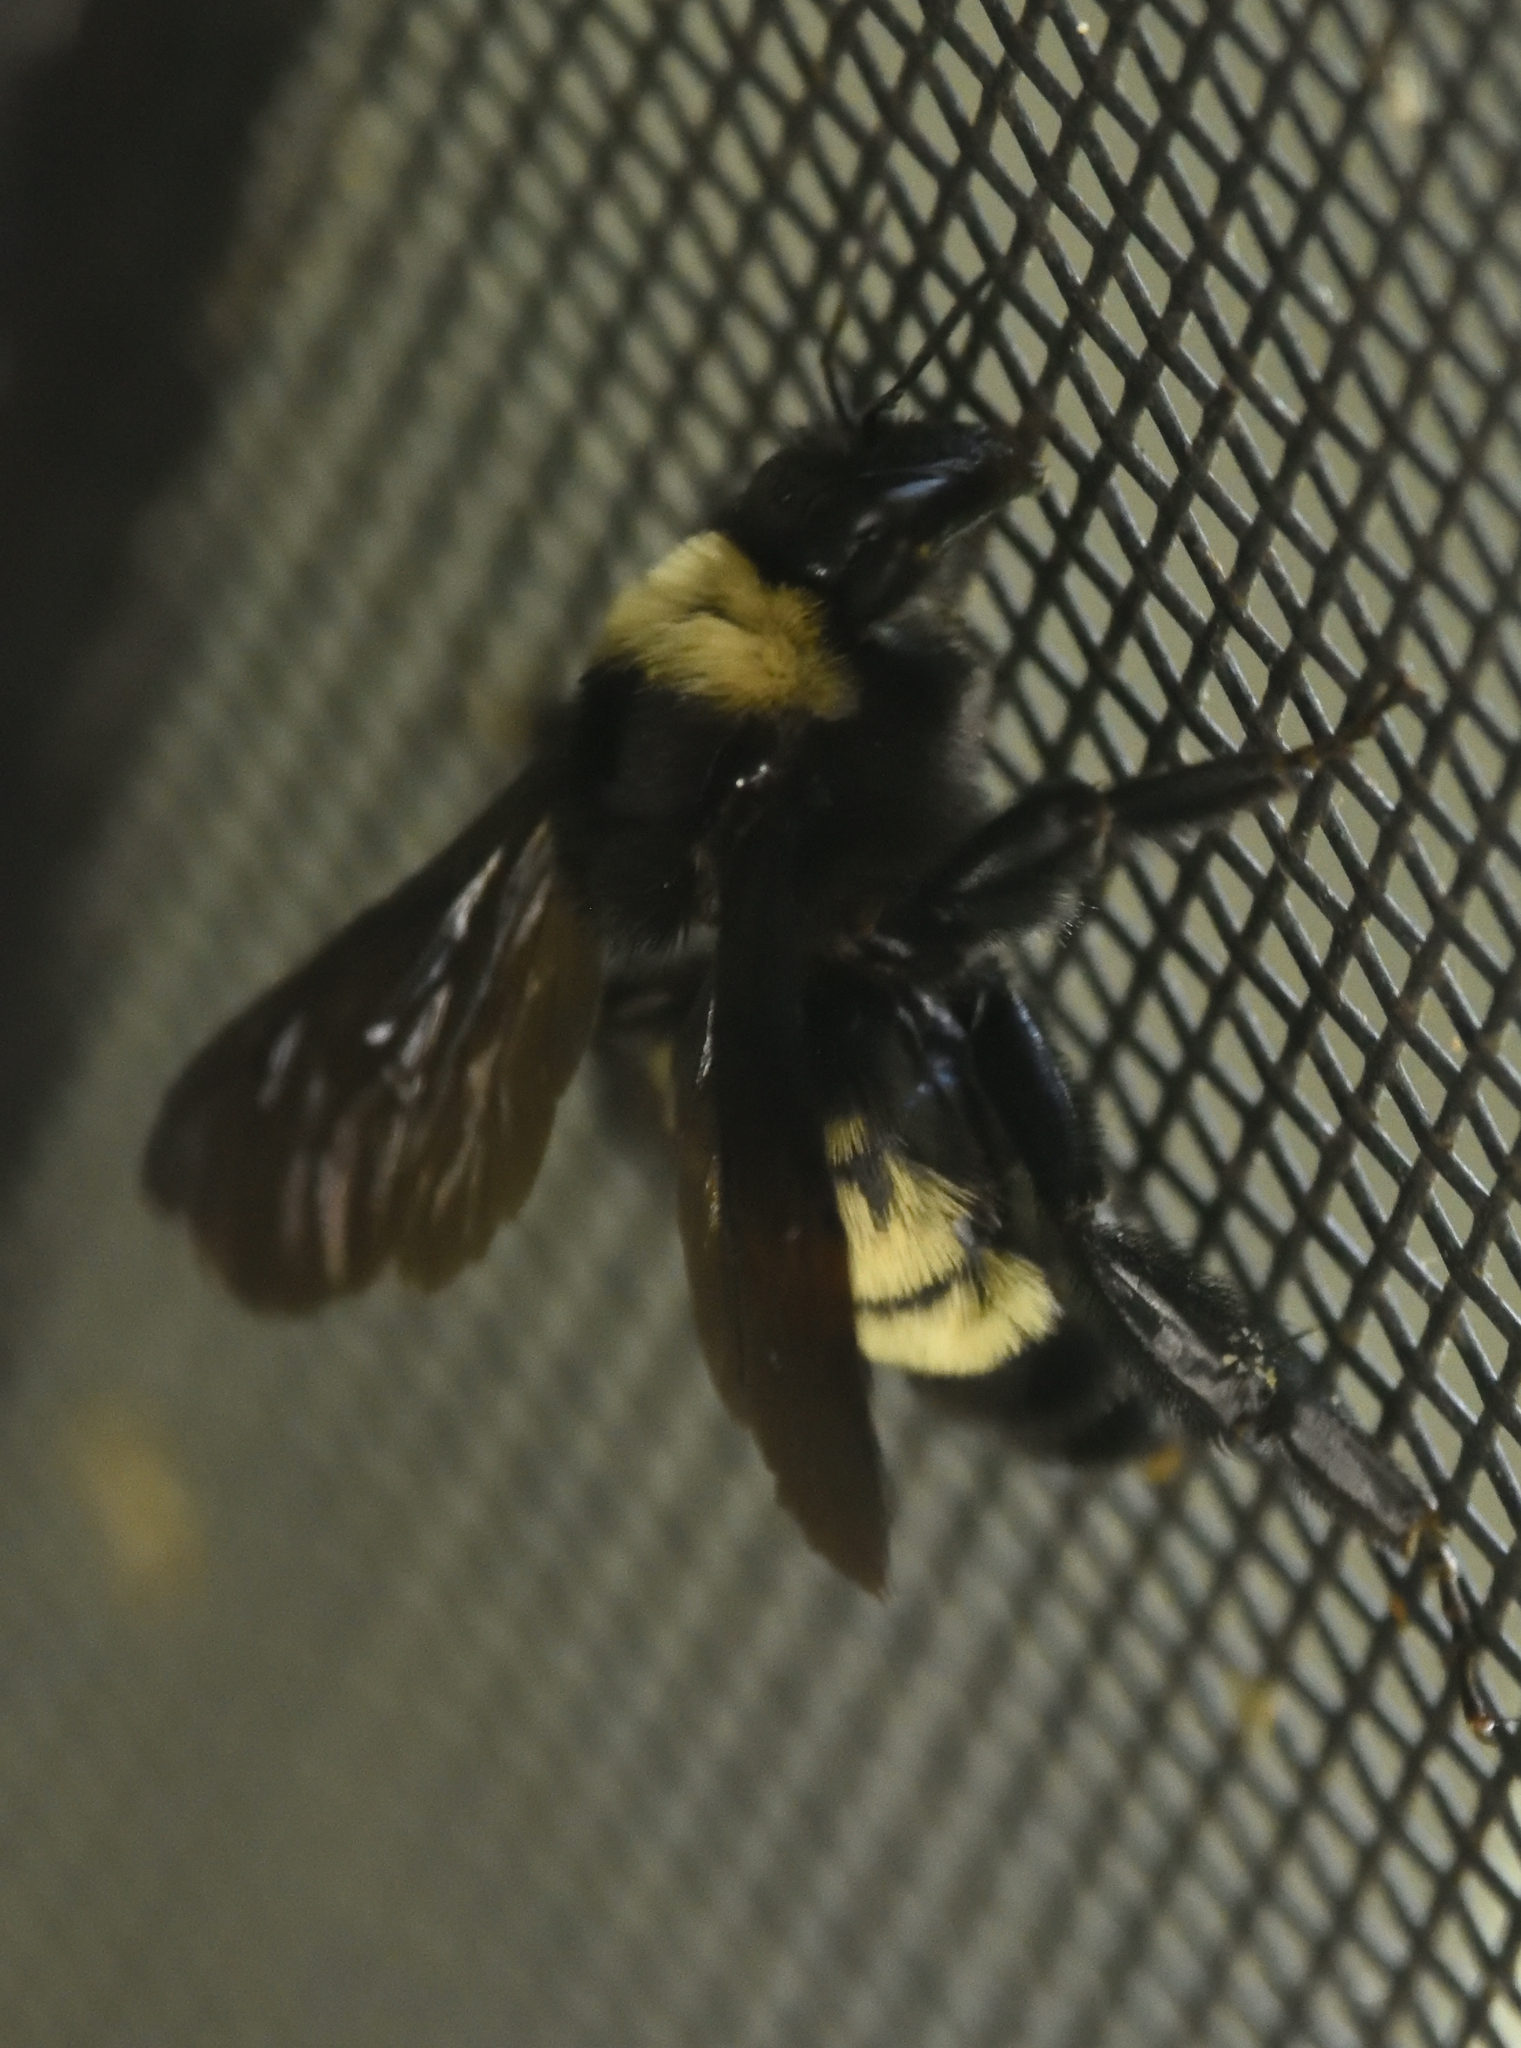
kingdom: Animalia
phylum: Arthropoda
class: Insecta
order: Hymenoptera
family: Apidae
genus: Bombus
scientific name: Bombus pensylvanicus
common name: Bumble bee
